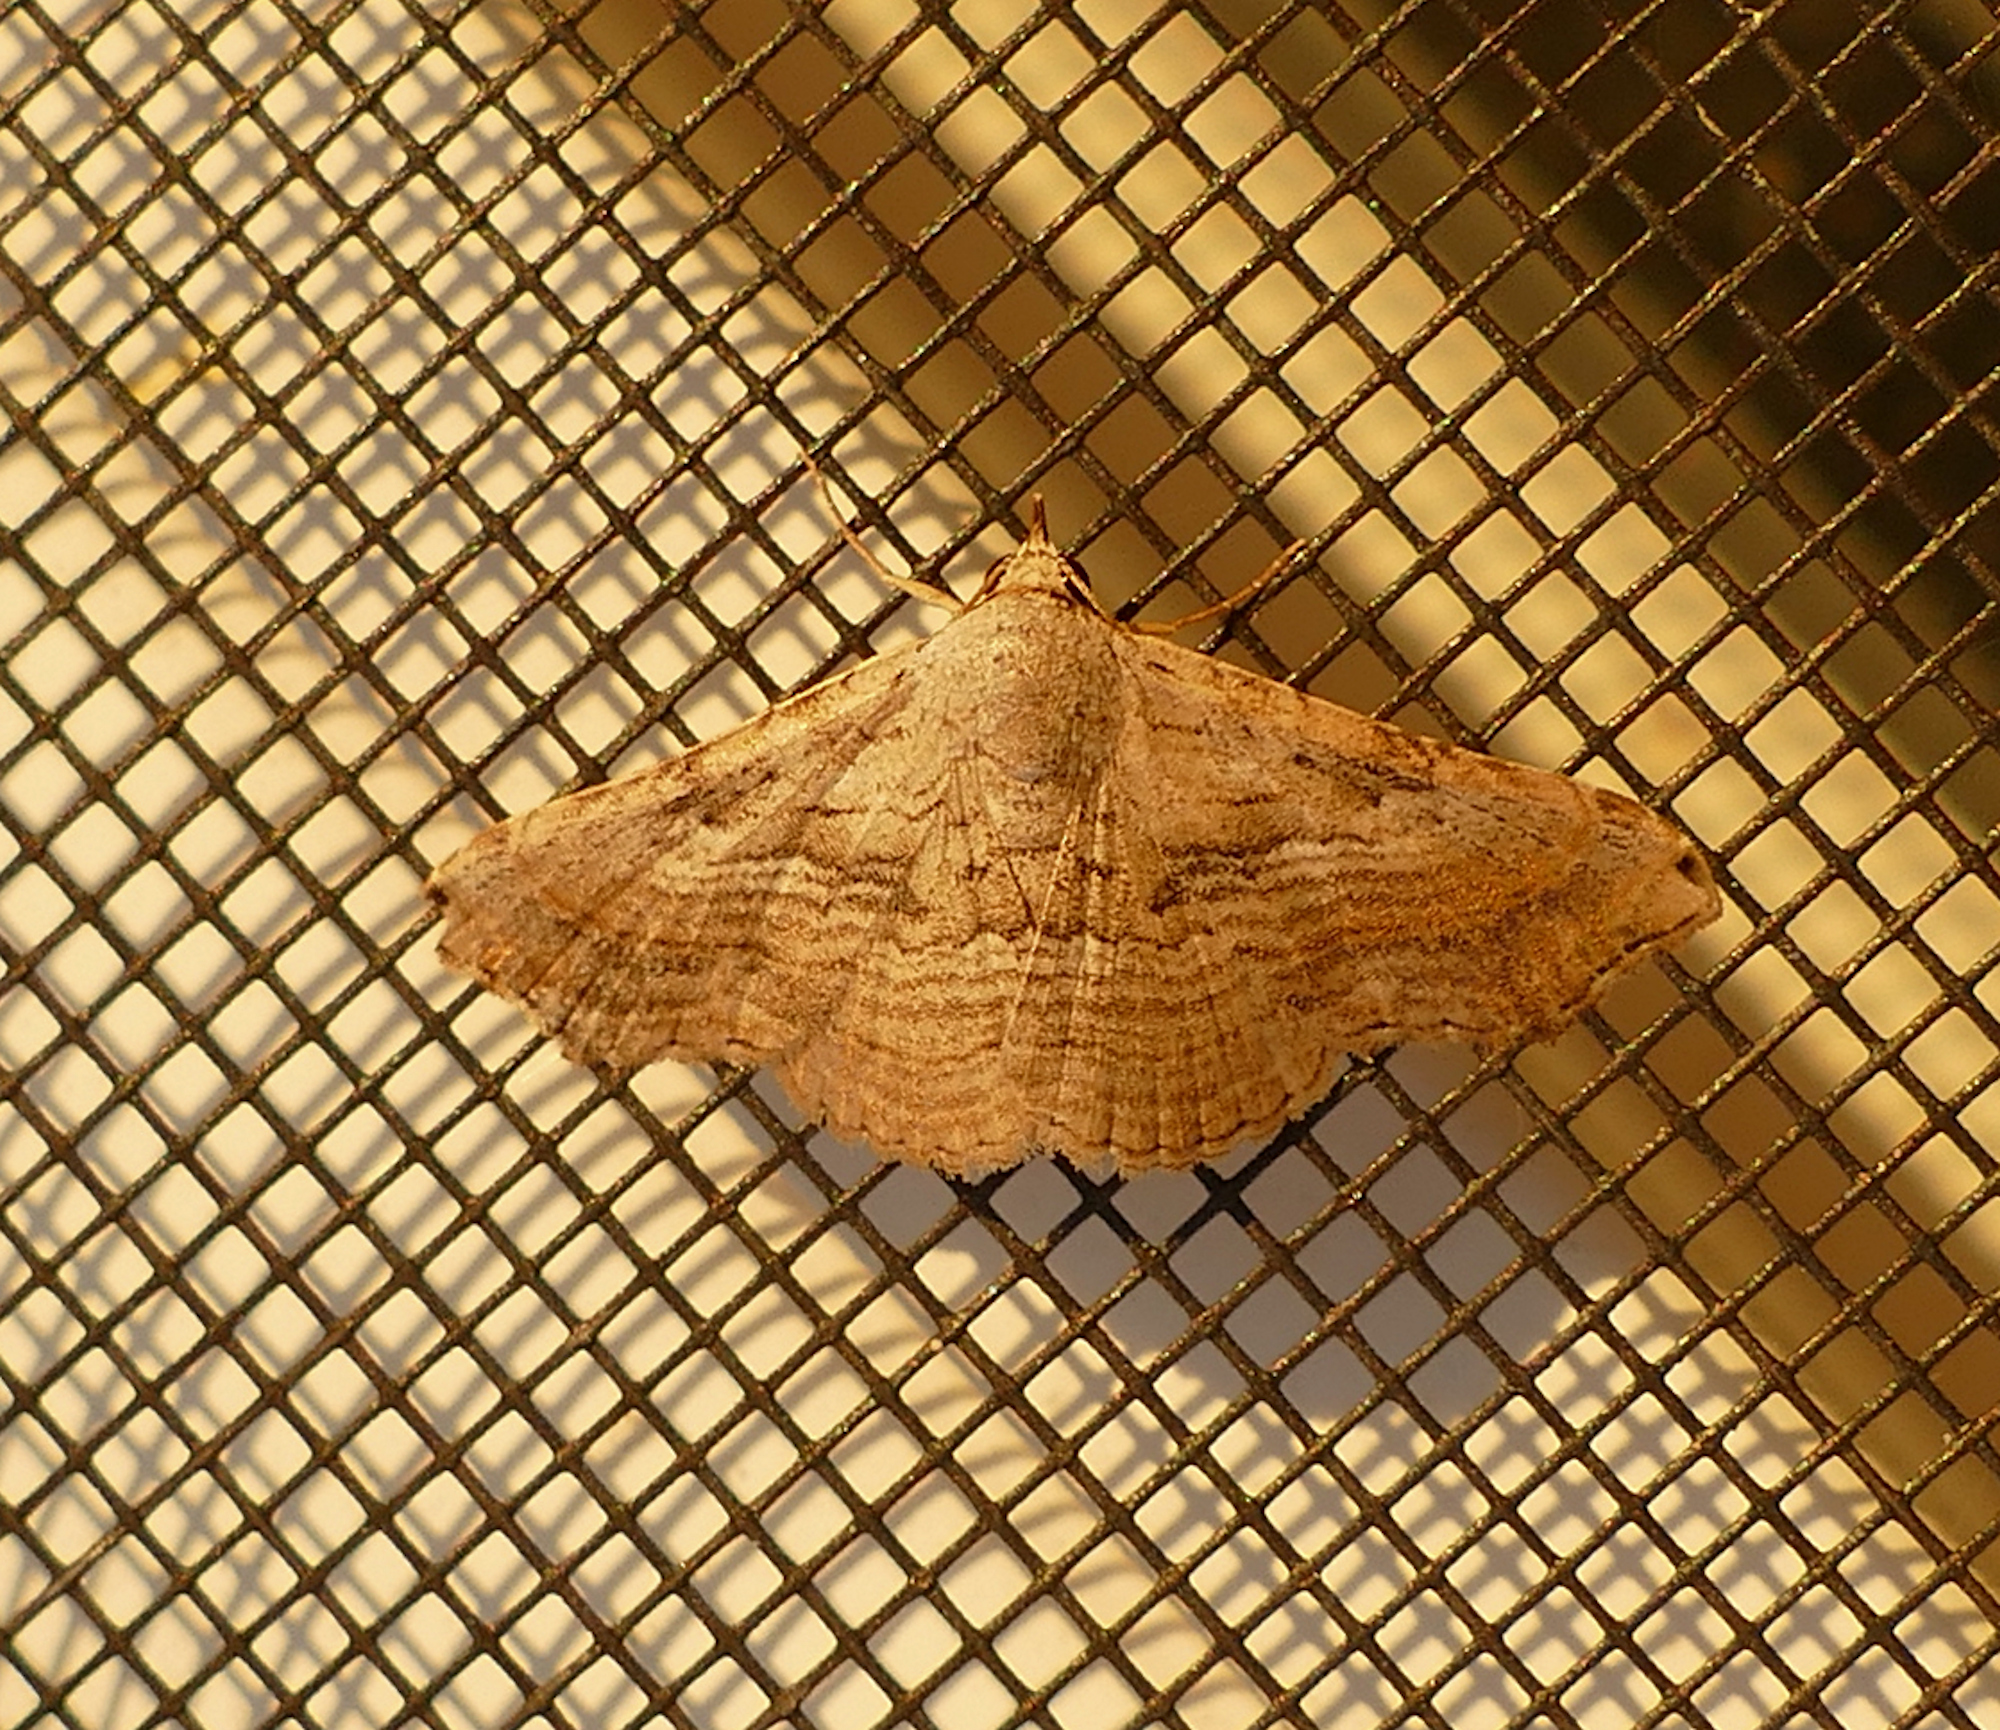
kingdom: Animalia
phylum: Arthropoda
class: Insecta
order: Lepidoptera
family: Erebidae
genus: Tyrissa
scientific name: Tyrissa multilinea
